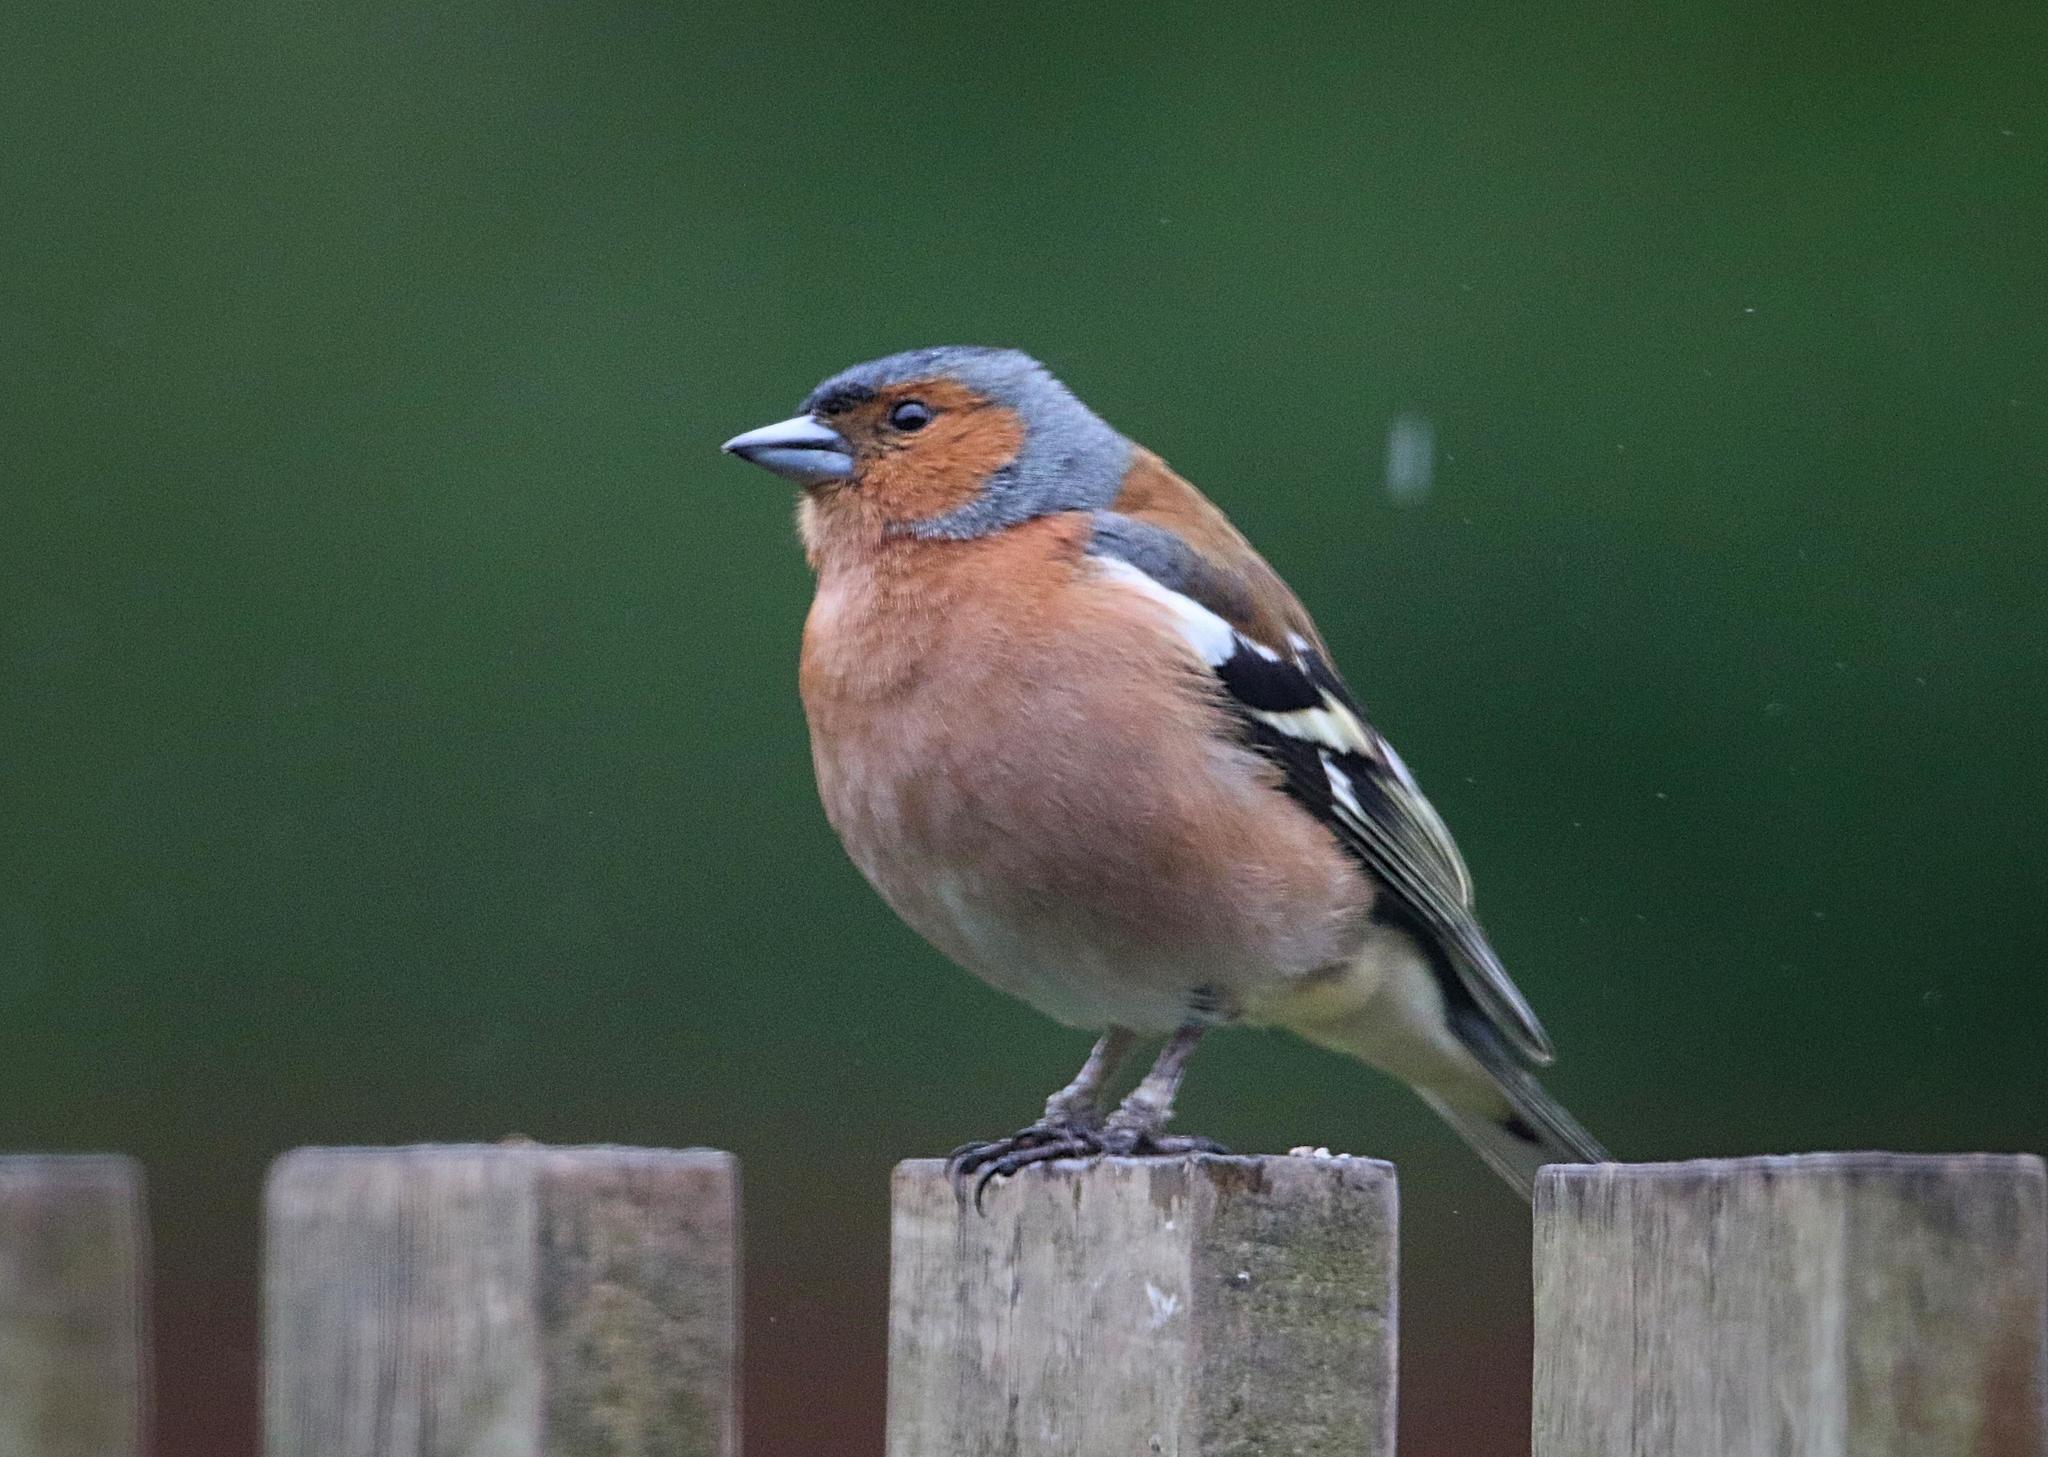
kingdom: Animalia
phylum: Chordata
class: Aves
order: Passeriformes
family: Fringillidae
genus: Fringilla
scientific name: Fringilla coelebs
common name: Common chaffinch
